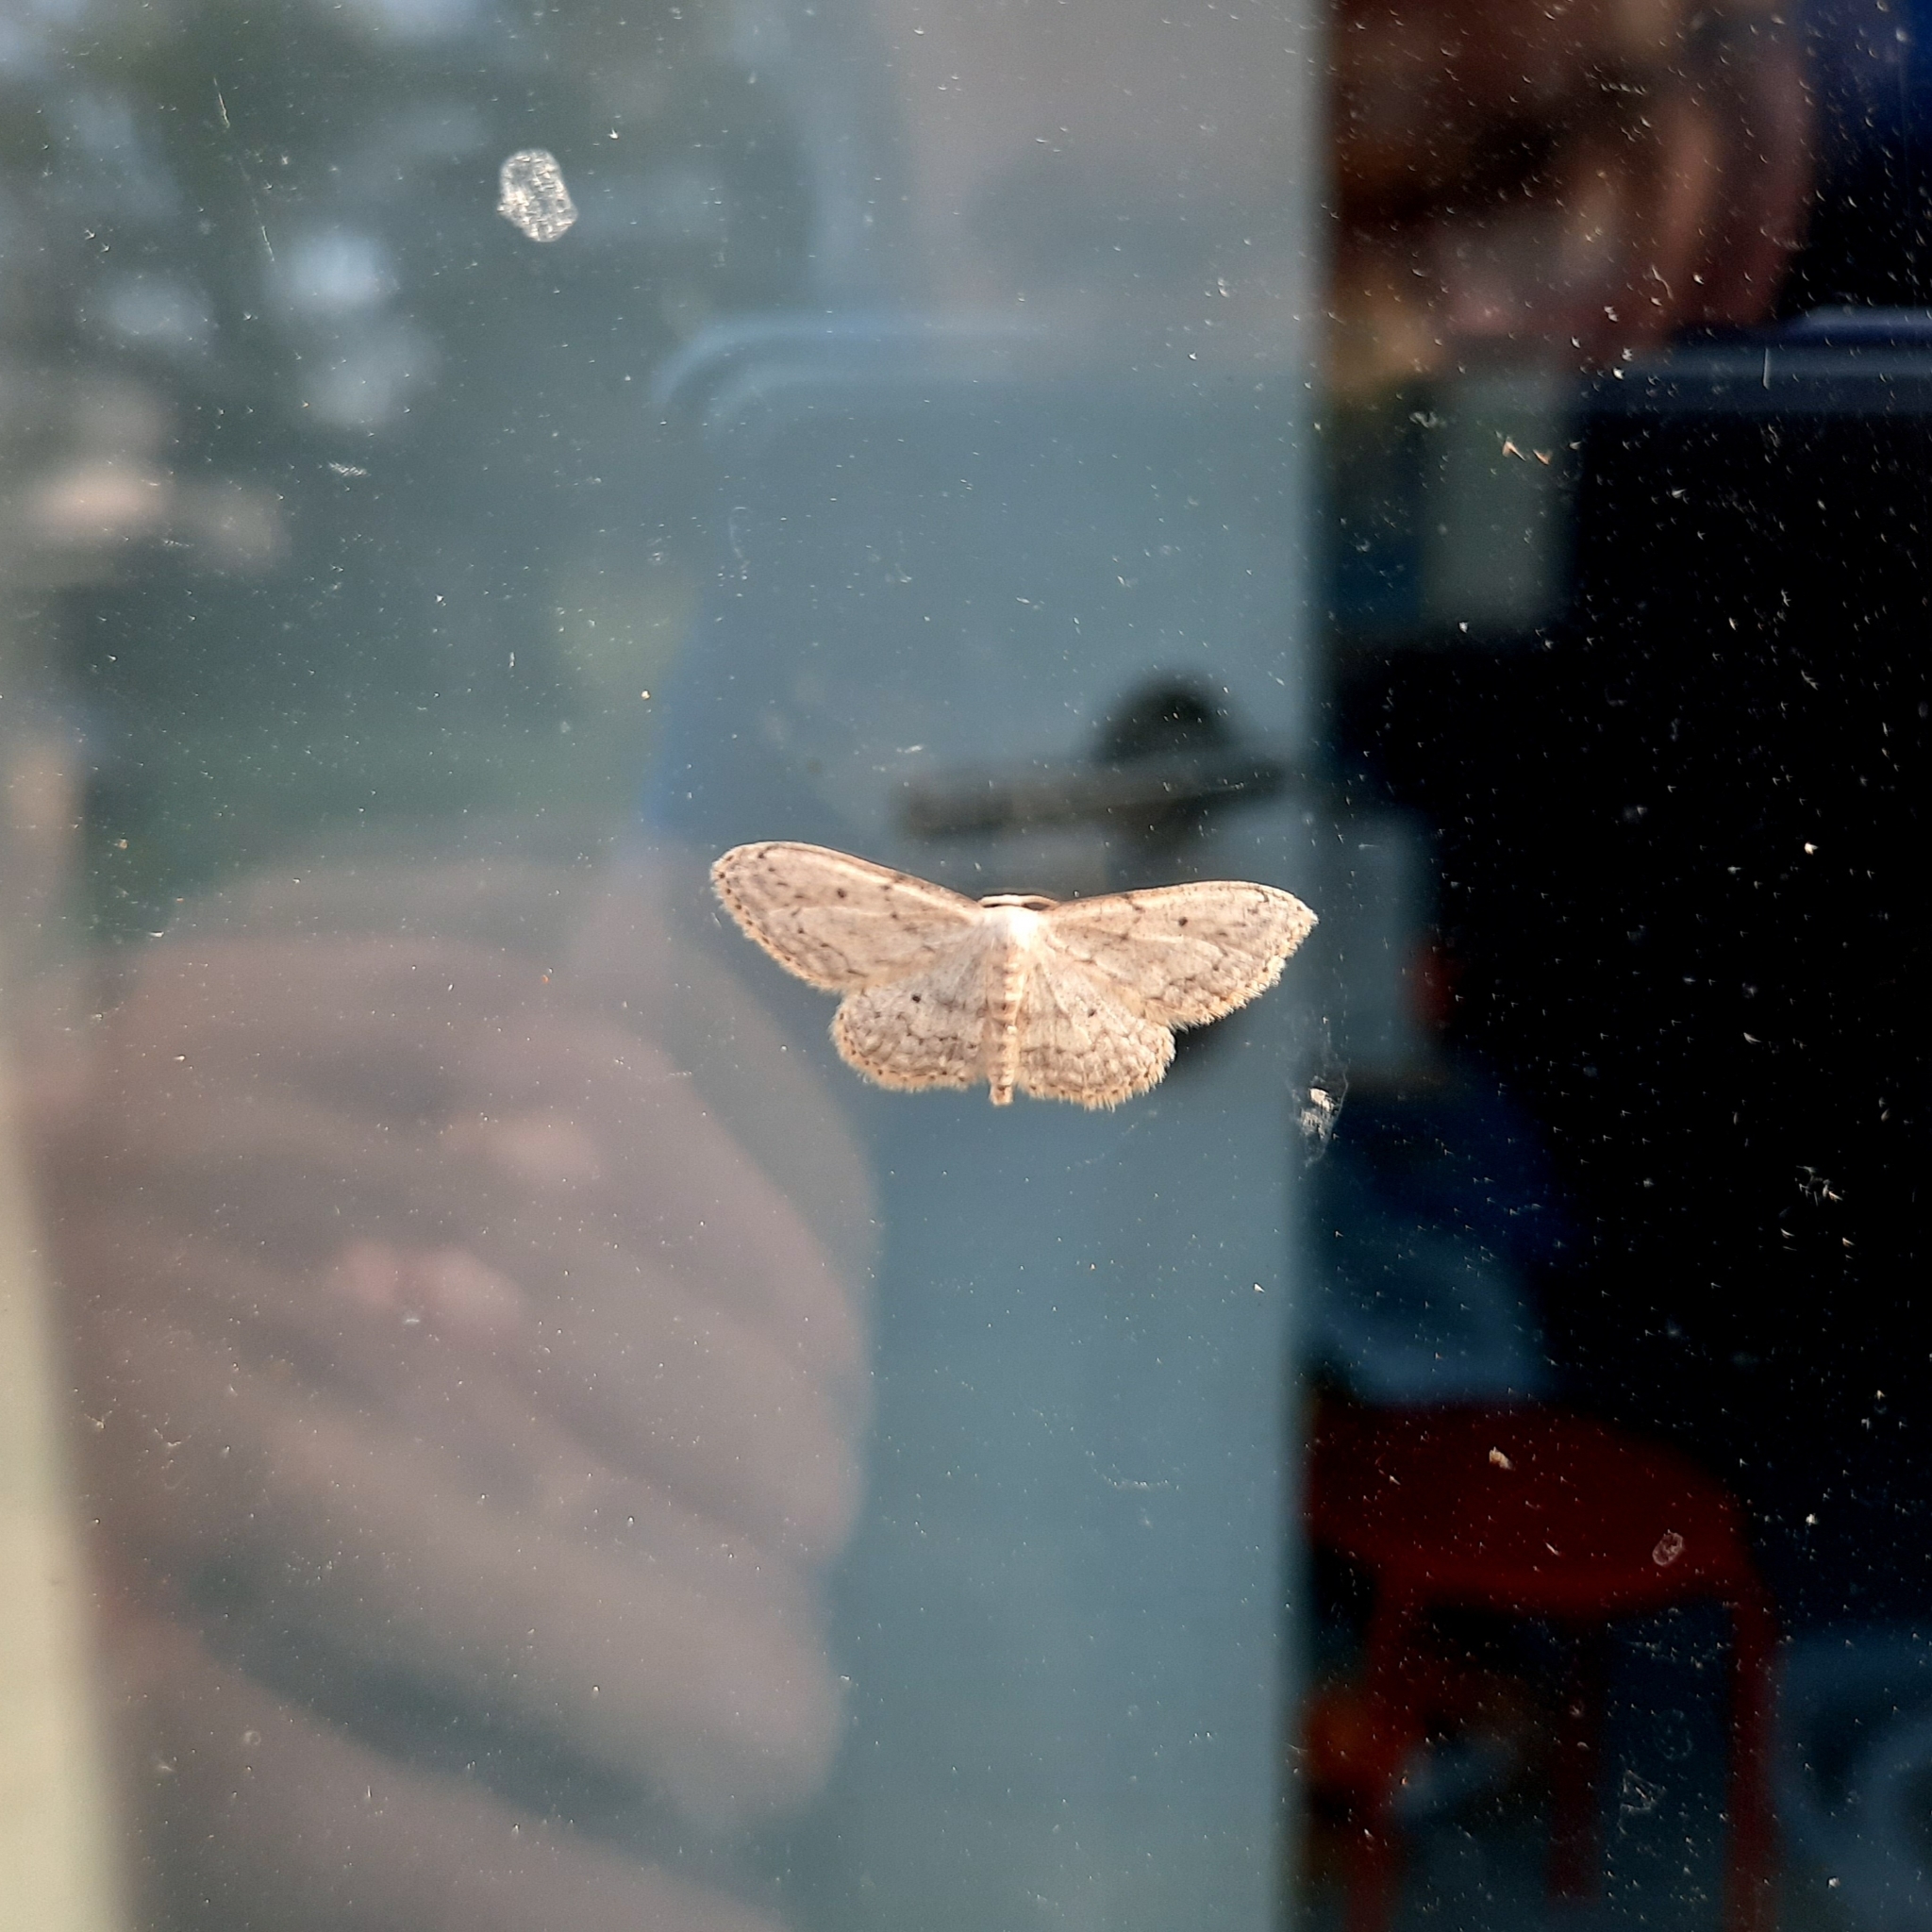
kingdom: Animalia
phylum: Arthropoda
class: Insecta
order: Lepidoptera
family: Geometridae
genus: Idaea
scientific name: Idaea seriata
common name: Small dusty wave
